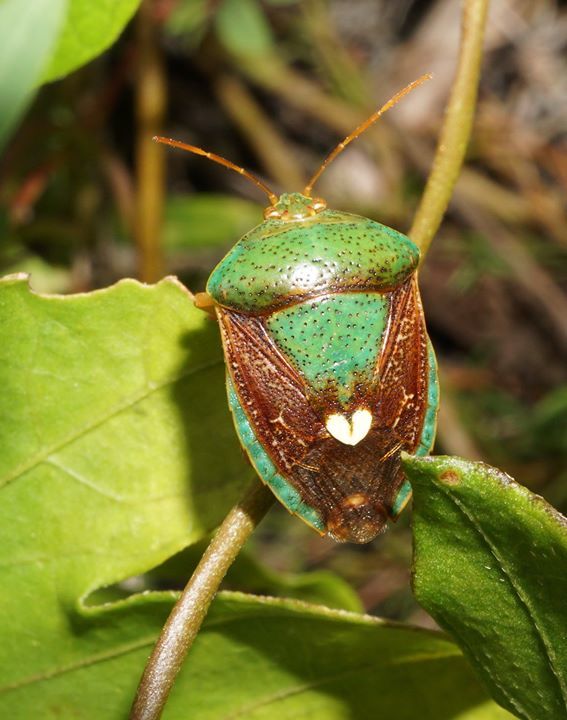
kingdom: Animalia
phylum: Arthropoda
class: Insecta
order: Hemiptera
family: Pentatomidae
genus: Edessa
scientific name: Edessa bifida
